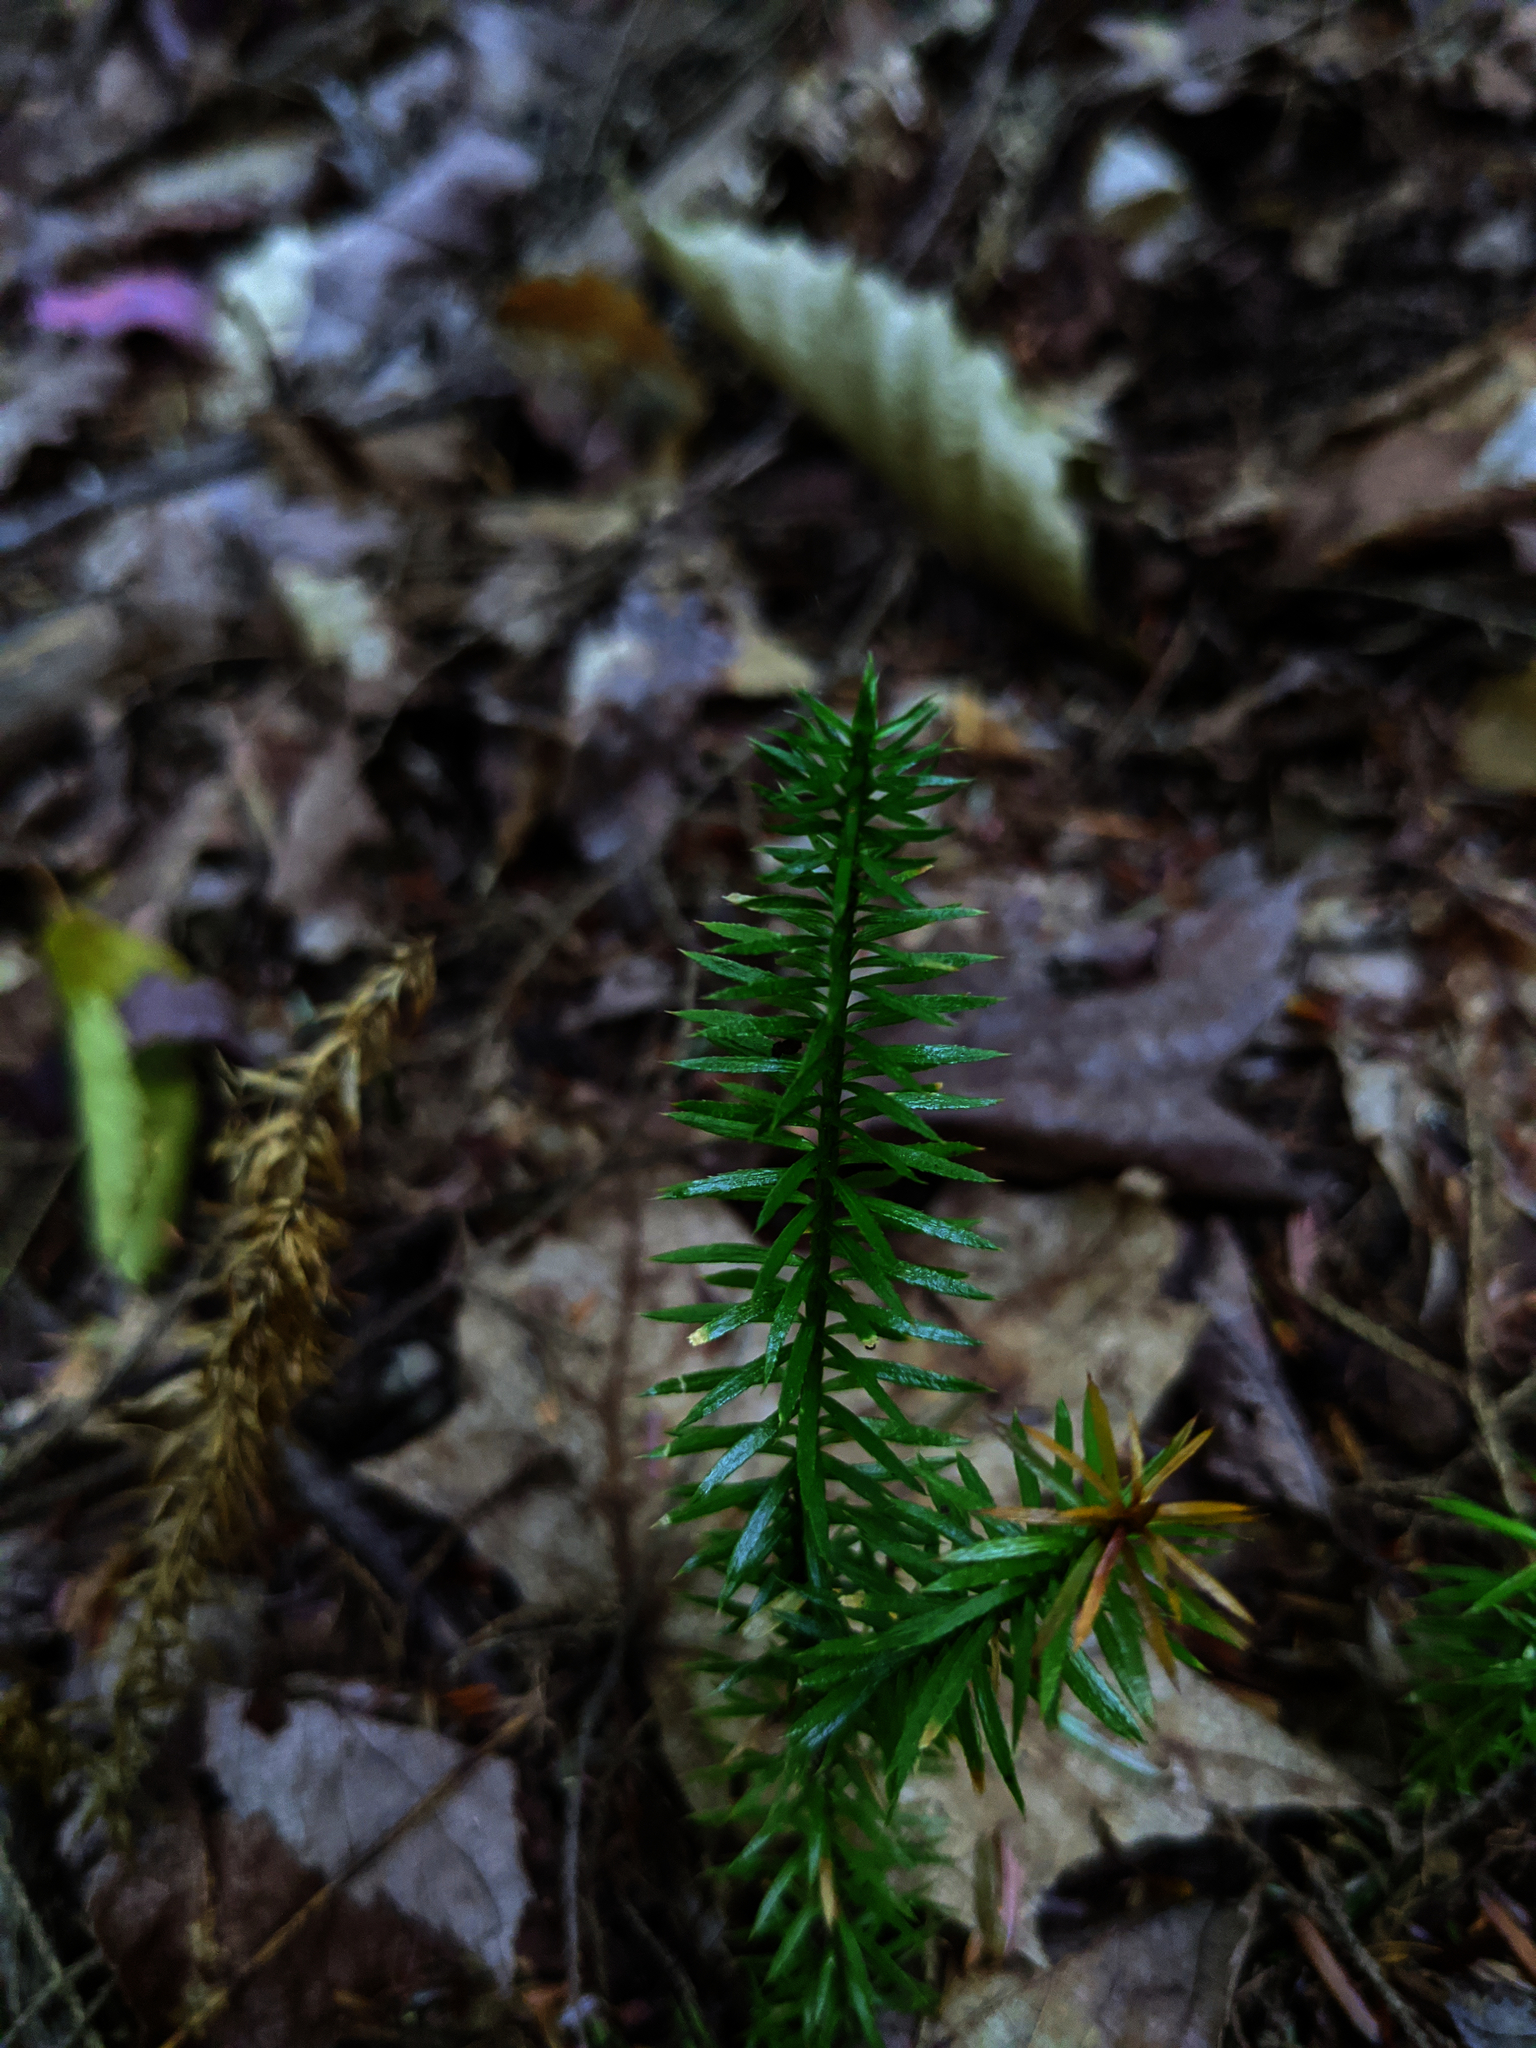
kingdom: Plantae
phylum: Tracheophyta
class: Lycopodiopsida
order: Lycopodiales
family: Lycopodiaceae
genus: Spinulum
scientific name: Spinulum annotinum
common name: Interrupted club-moss
